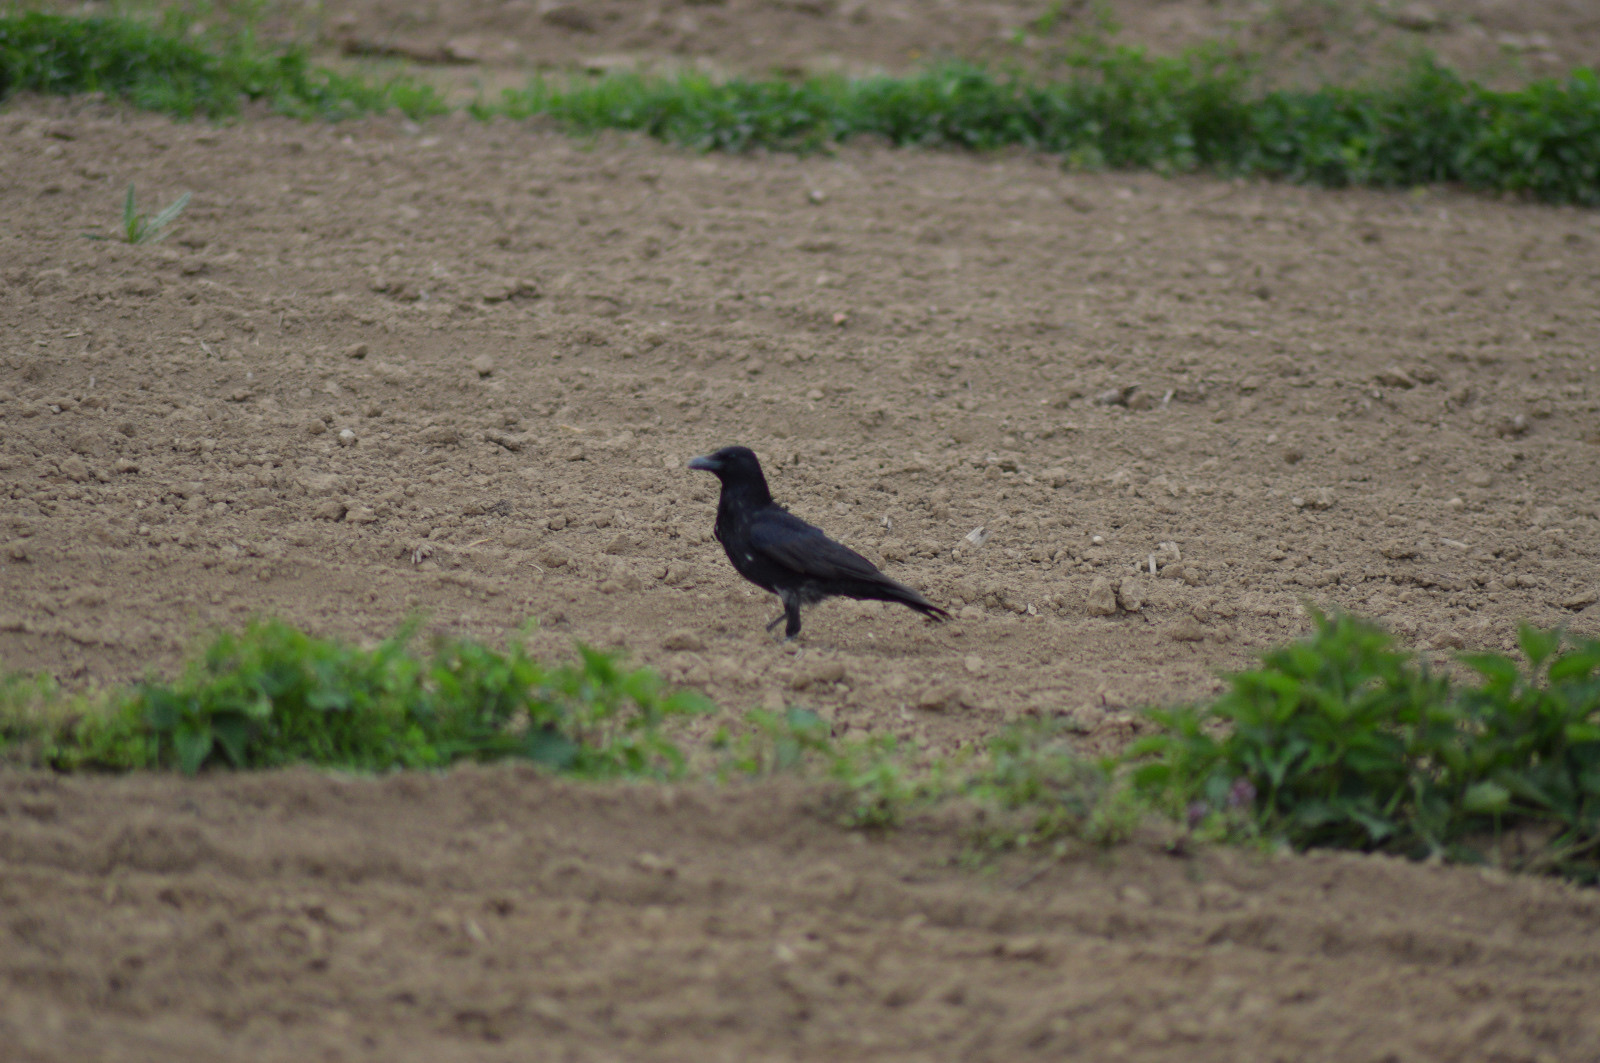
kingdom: Animalia
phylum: Chordata
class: Aves
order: Passeriformes
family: Corvidae
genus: Corvus
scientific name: Corvus corone
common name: Carrion crow
